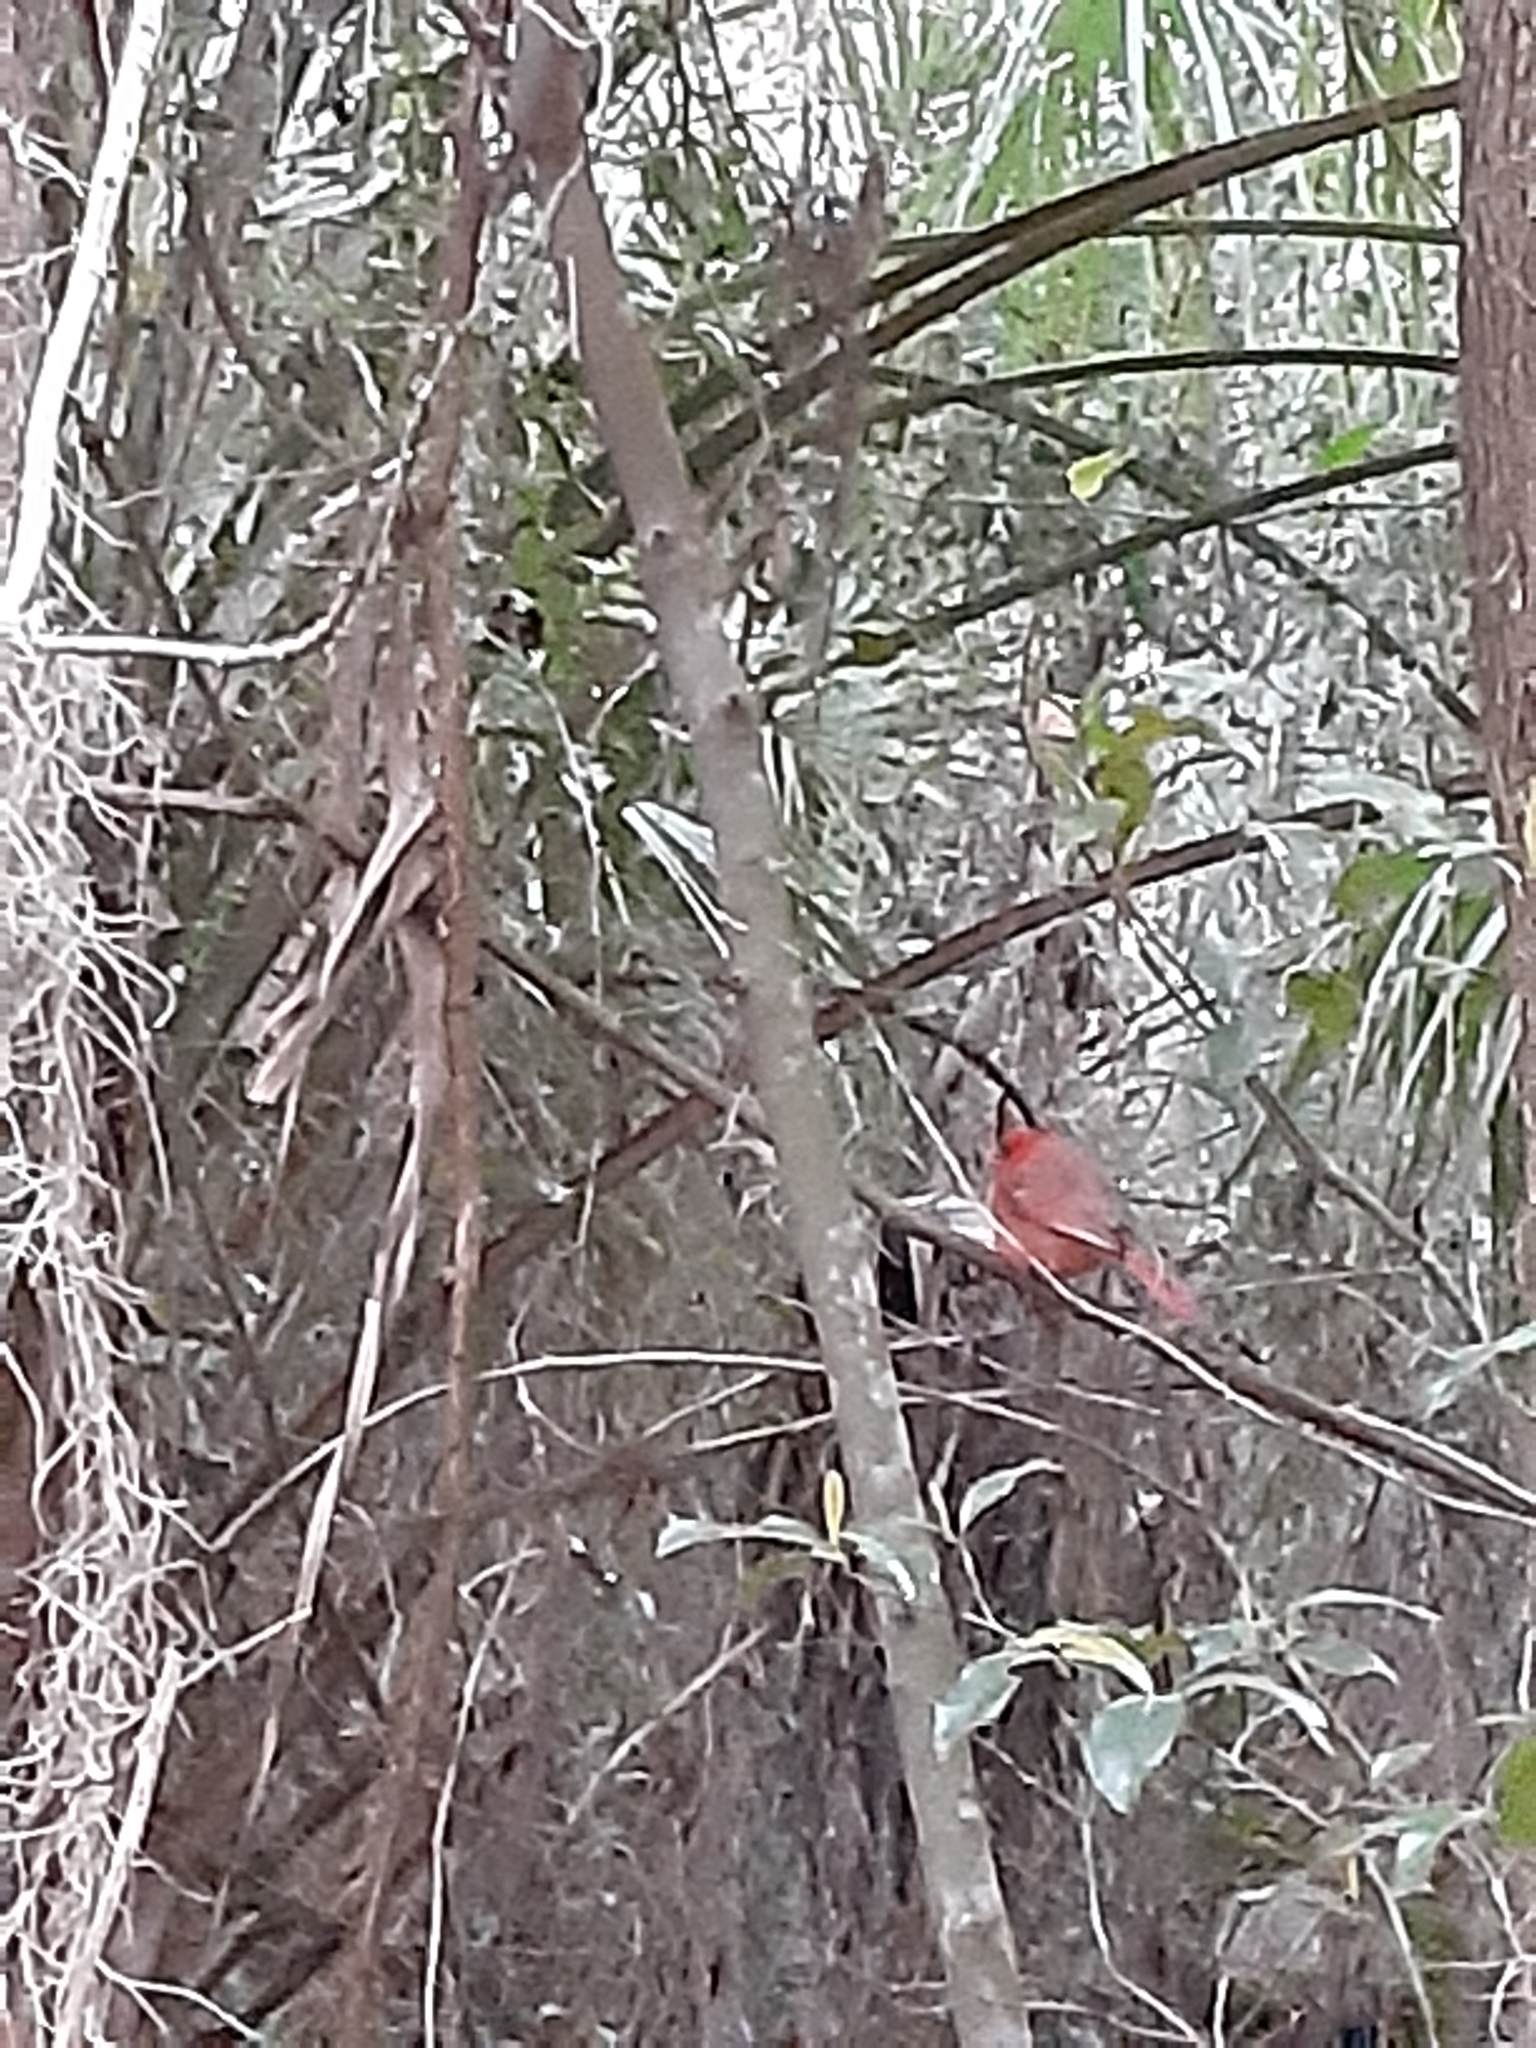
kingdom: Animalia
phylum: Chordata
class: Aves
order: Passeriformes
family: Cardinalidae
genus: Cardinalis
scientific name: Cardinalis cardinalis
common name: Northern cardinal
